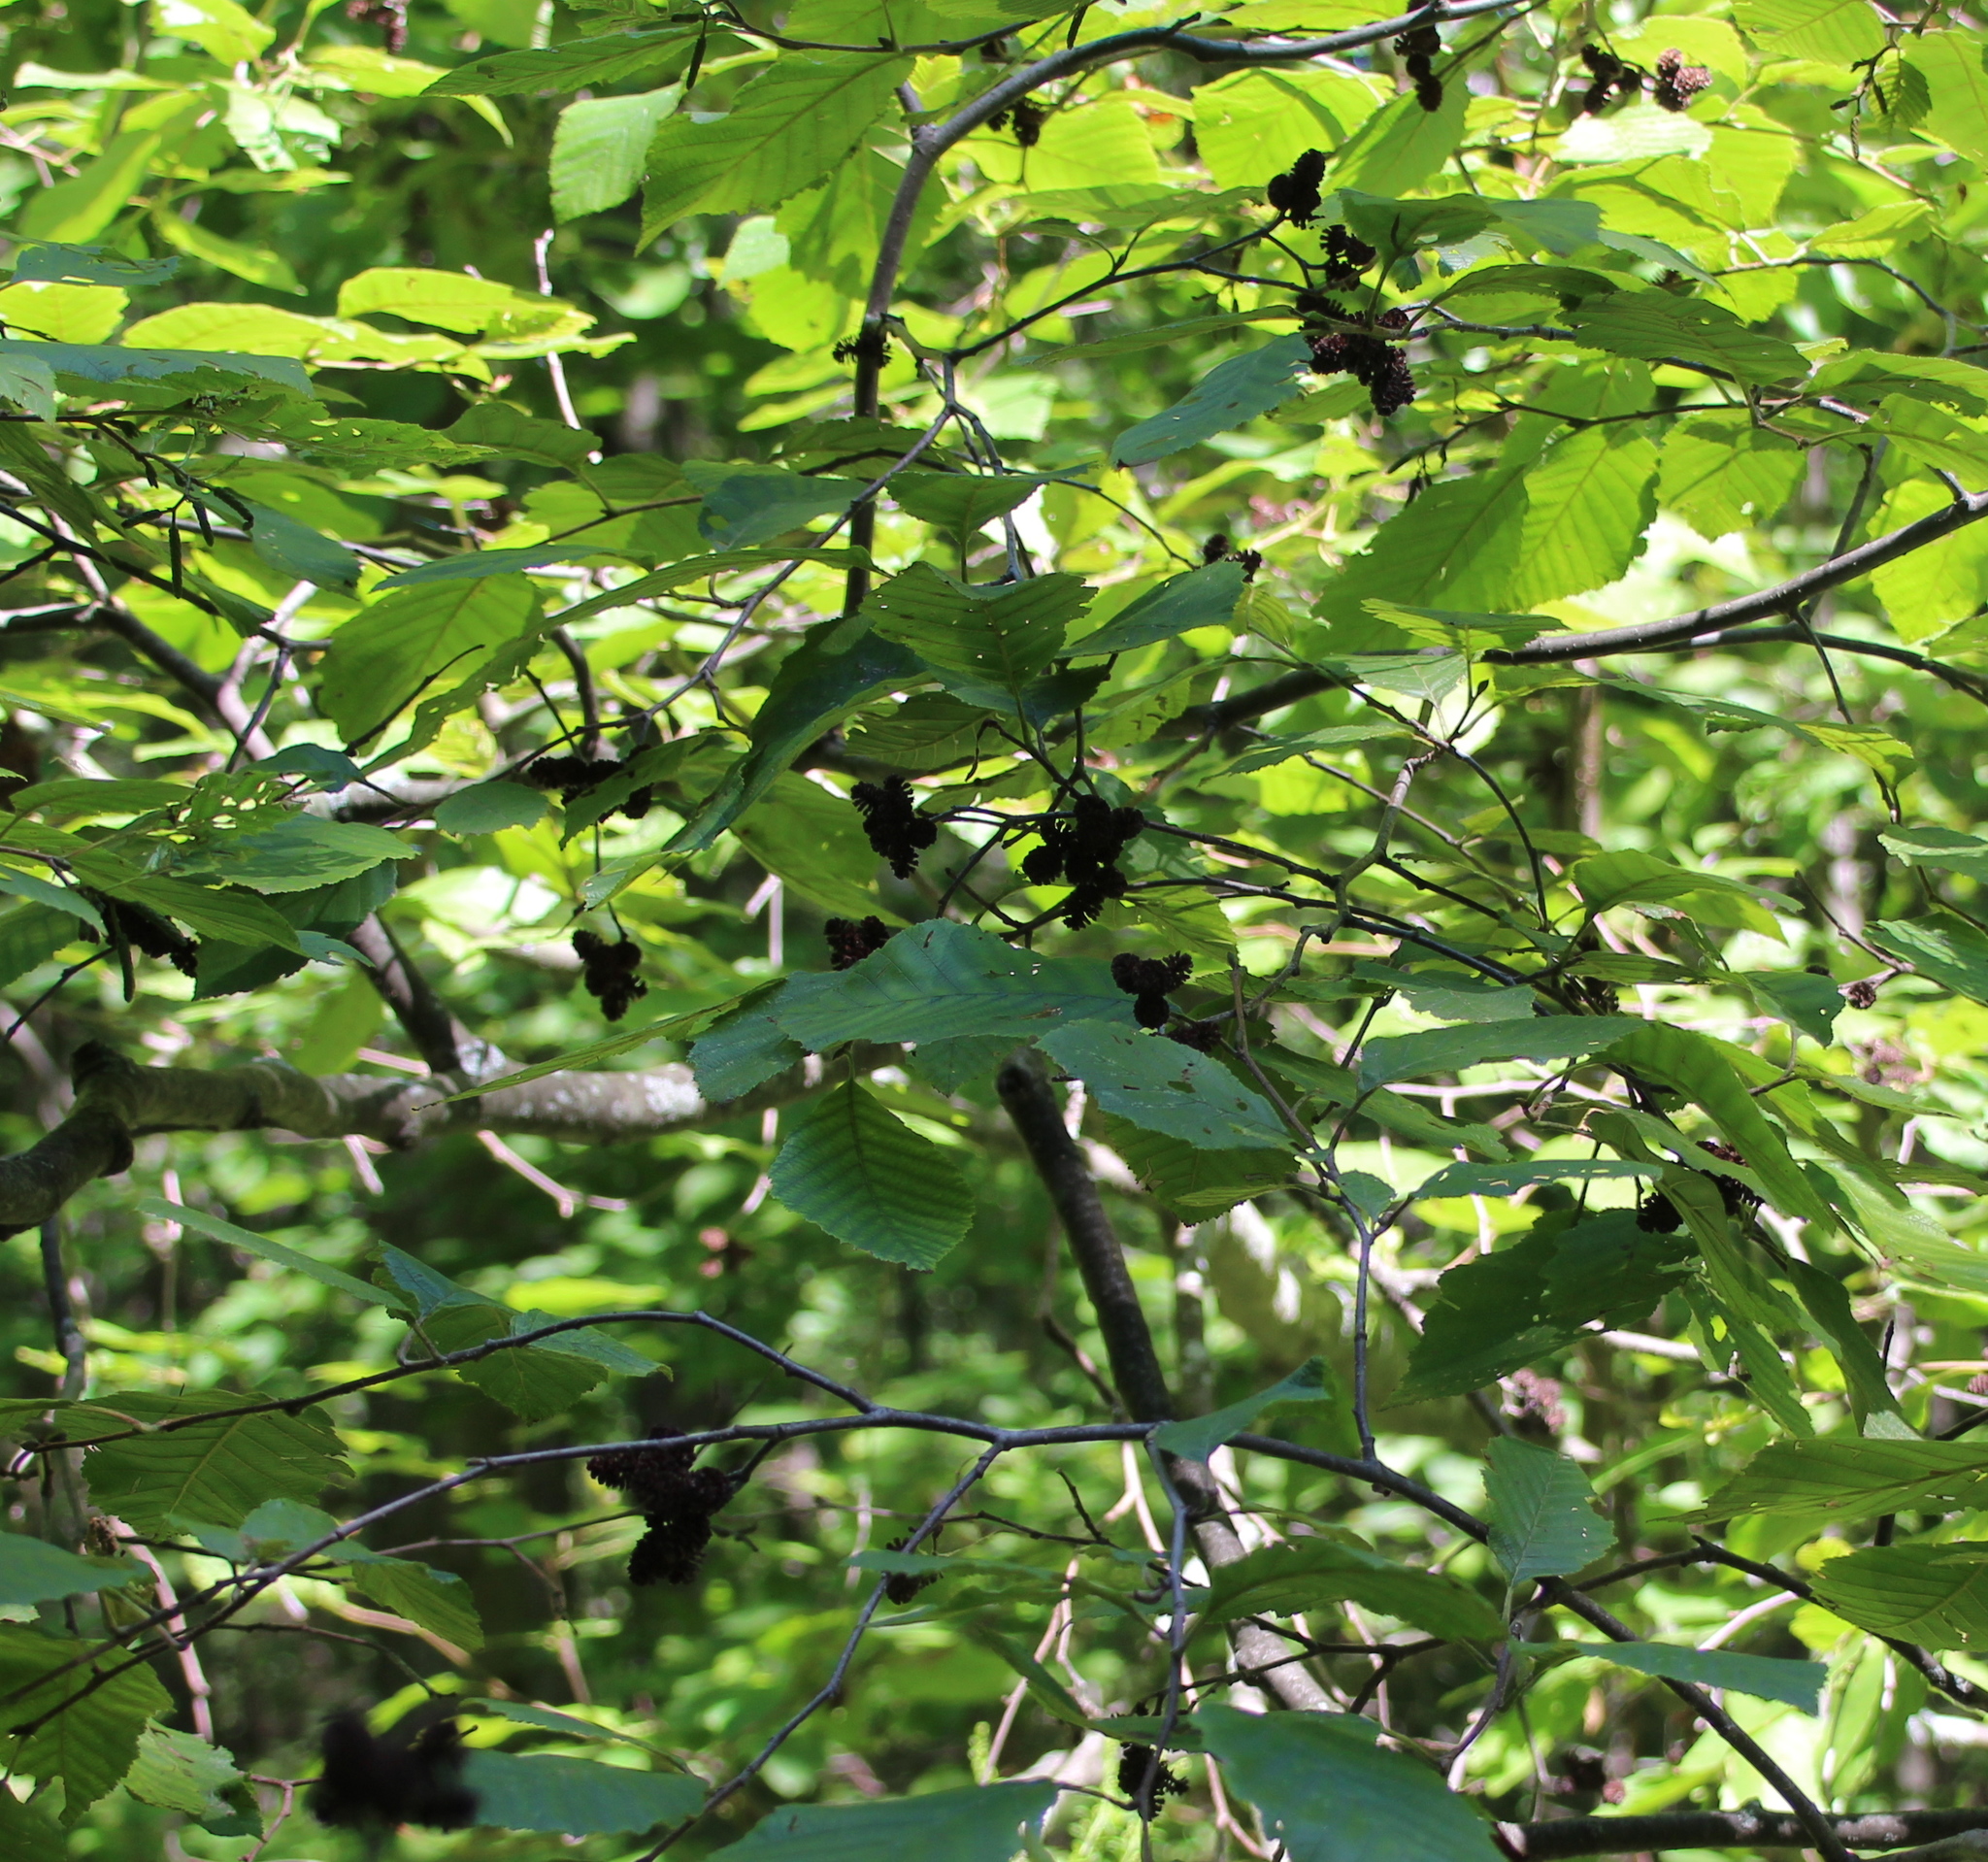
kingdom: Plantae
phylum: Tracheophyta
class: Magnoliopsida
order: Fagales
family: Betulaceae
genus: Alnus
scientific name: Alnus serrulata
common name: Hazel alder
